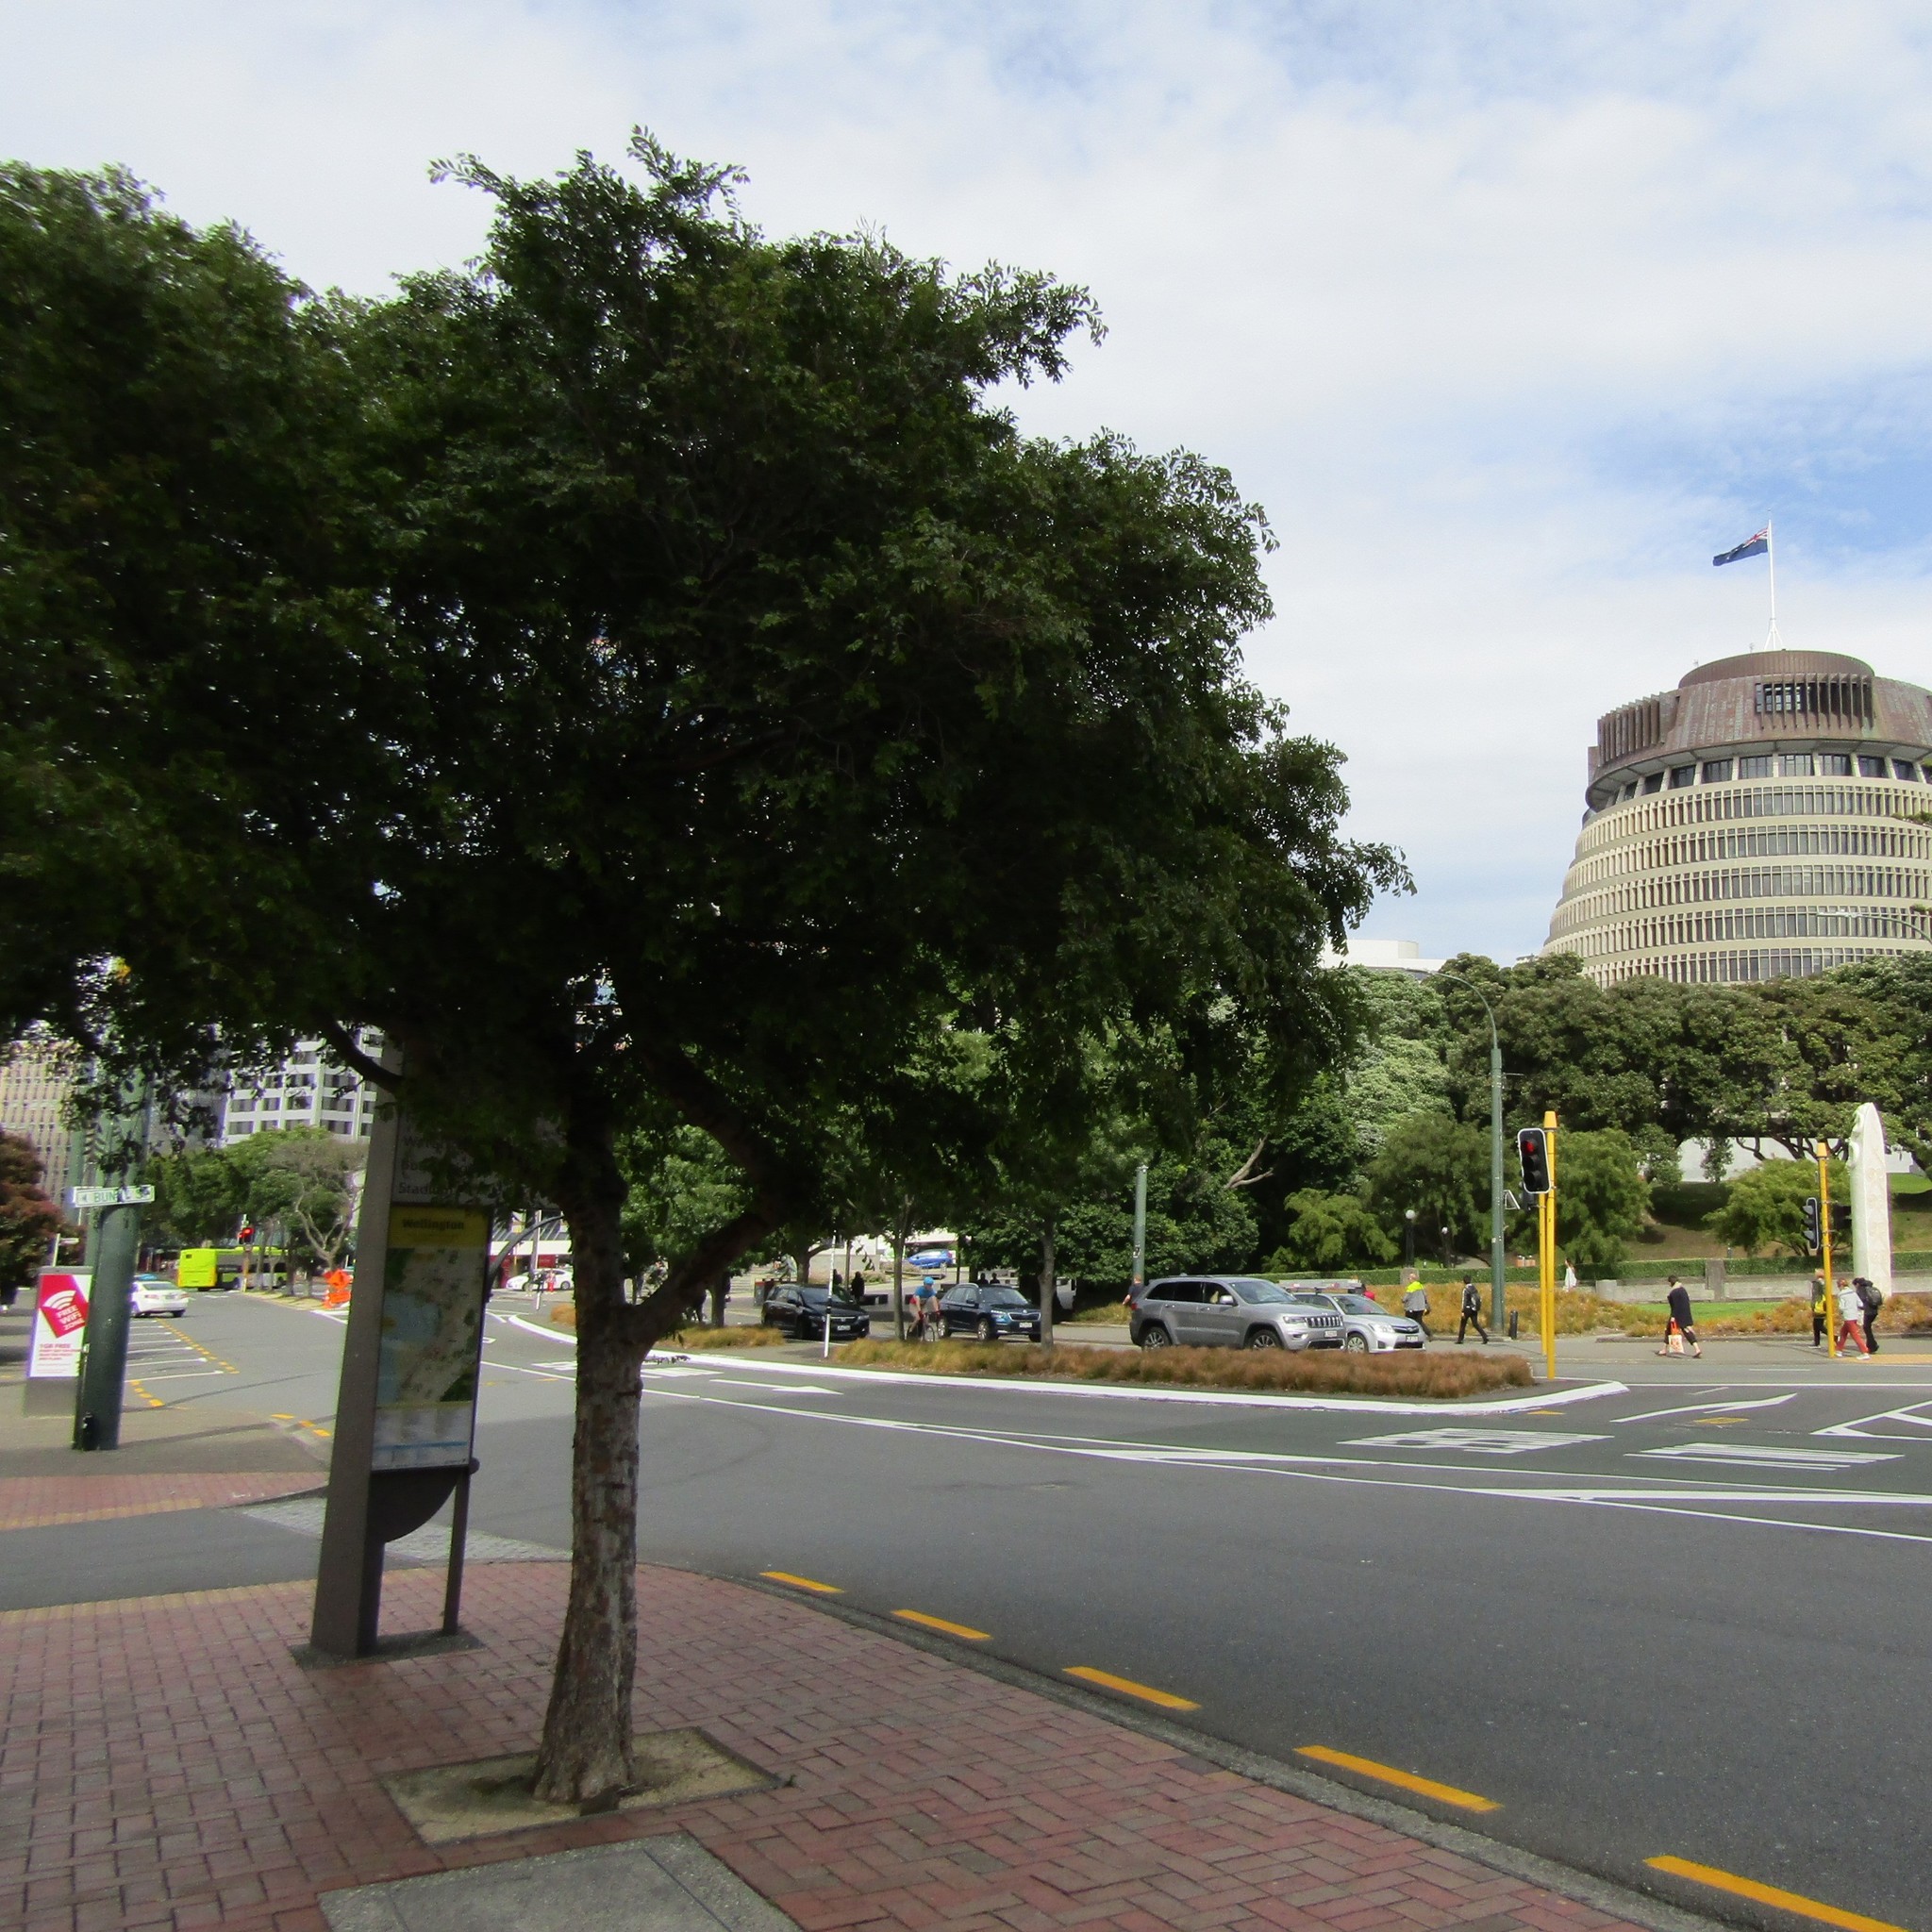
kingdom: Animalia
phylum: Chordata
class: Aves
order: Psittaciformes
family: Psittacidae
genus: Nestor
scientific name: Nestor meridionalis
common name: New zealand kaka
